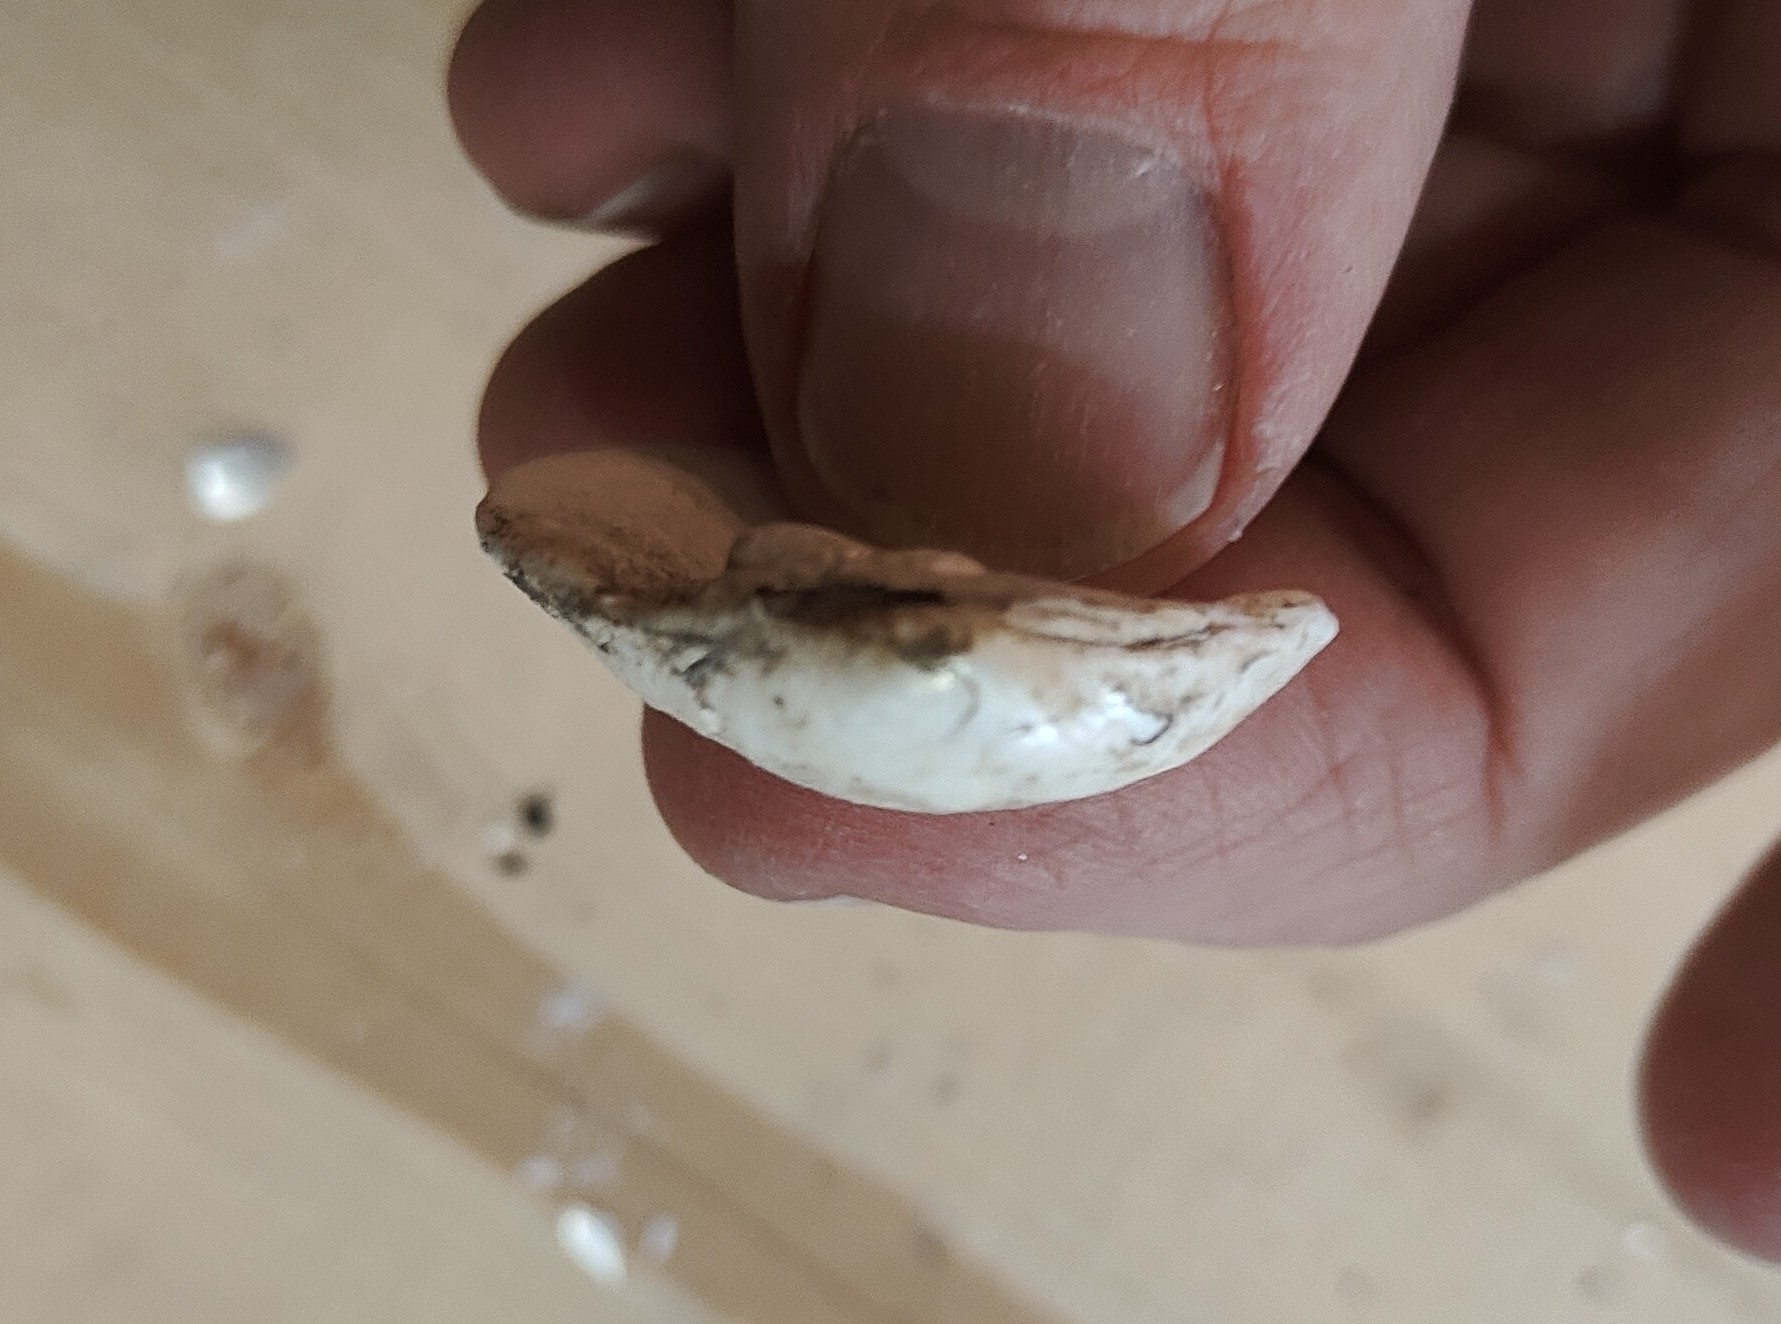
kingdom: Animalia
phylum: Mollusca
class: Bivalvia
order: Unionida
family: Unionidae
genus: Cyclonaias
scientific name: Cyclonaias pustulosa
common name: Pimpleback
